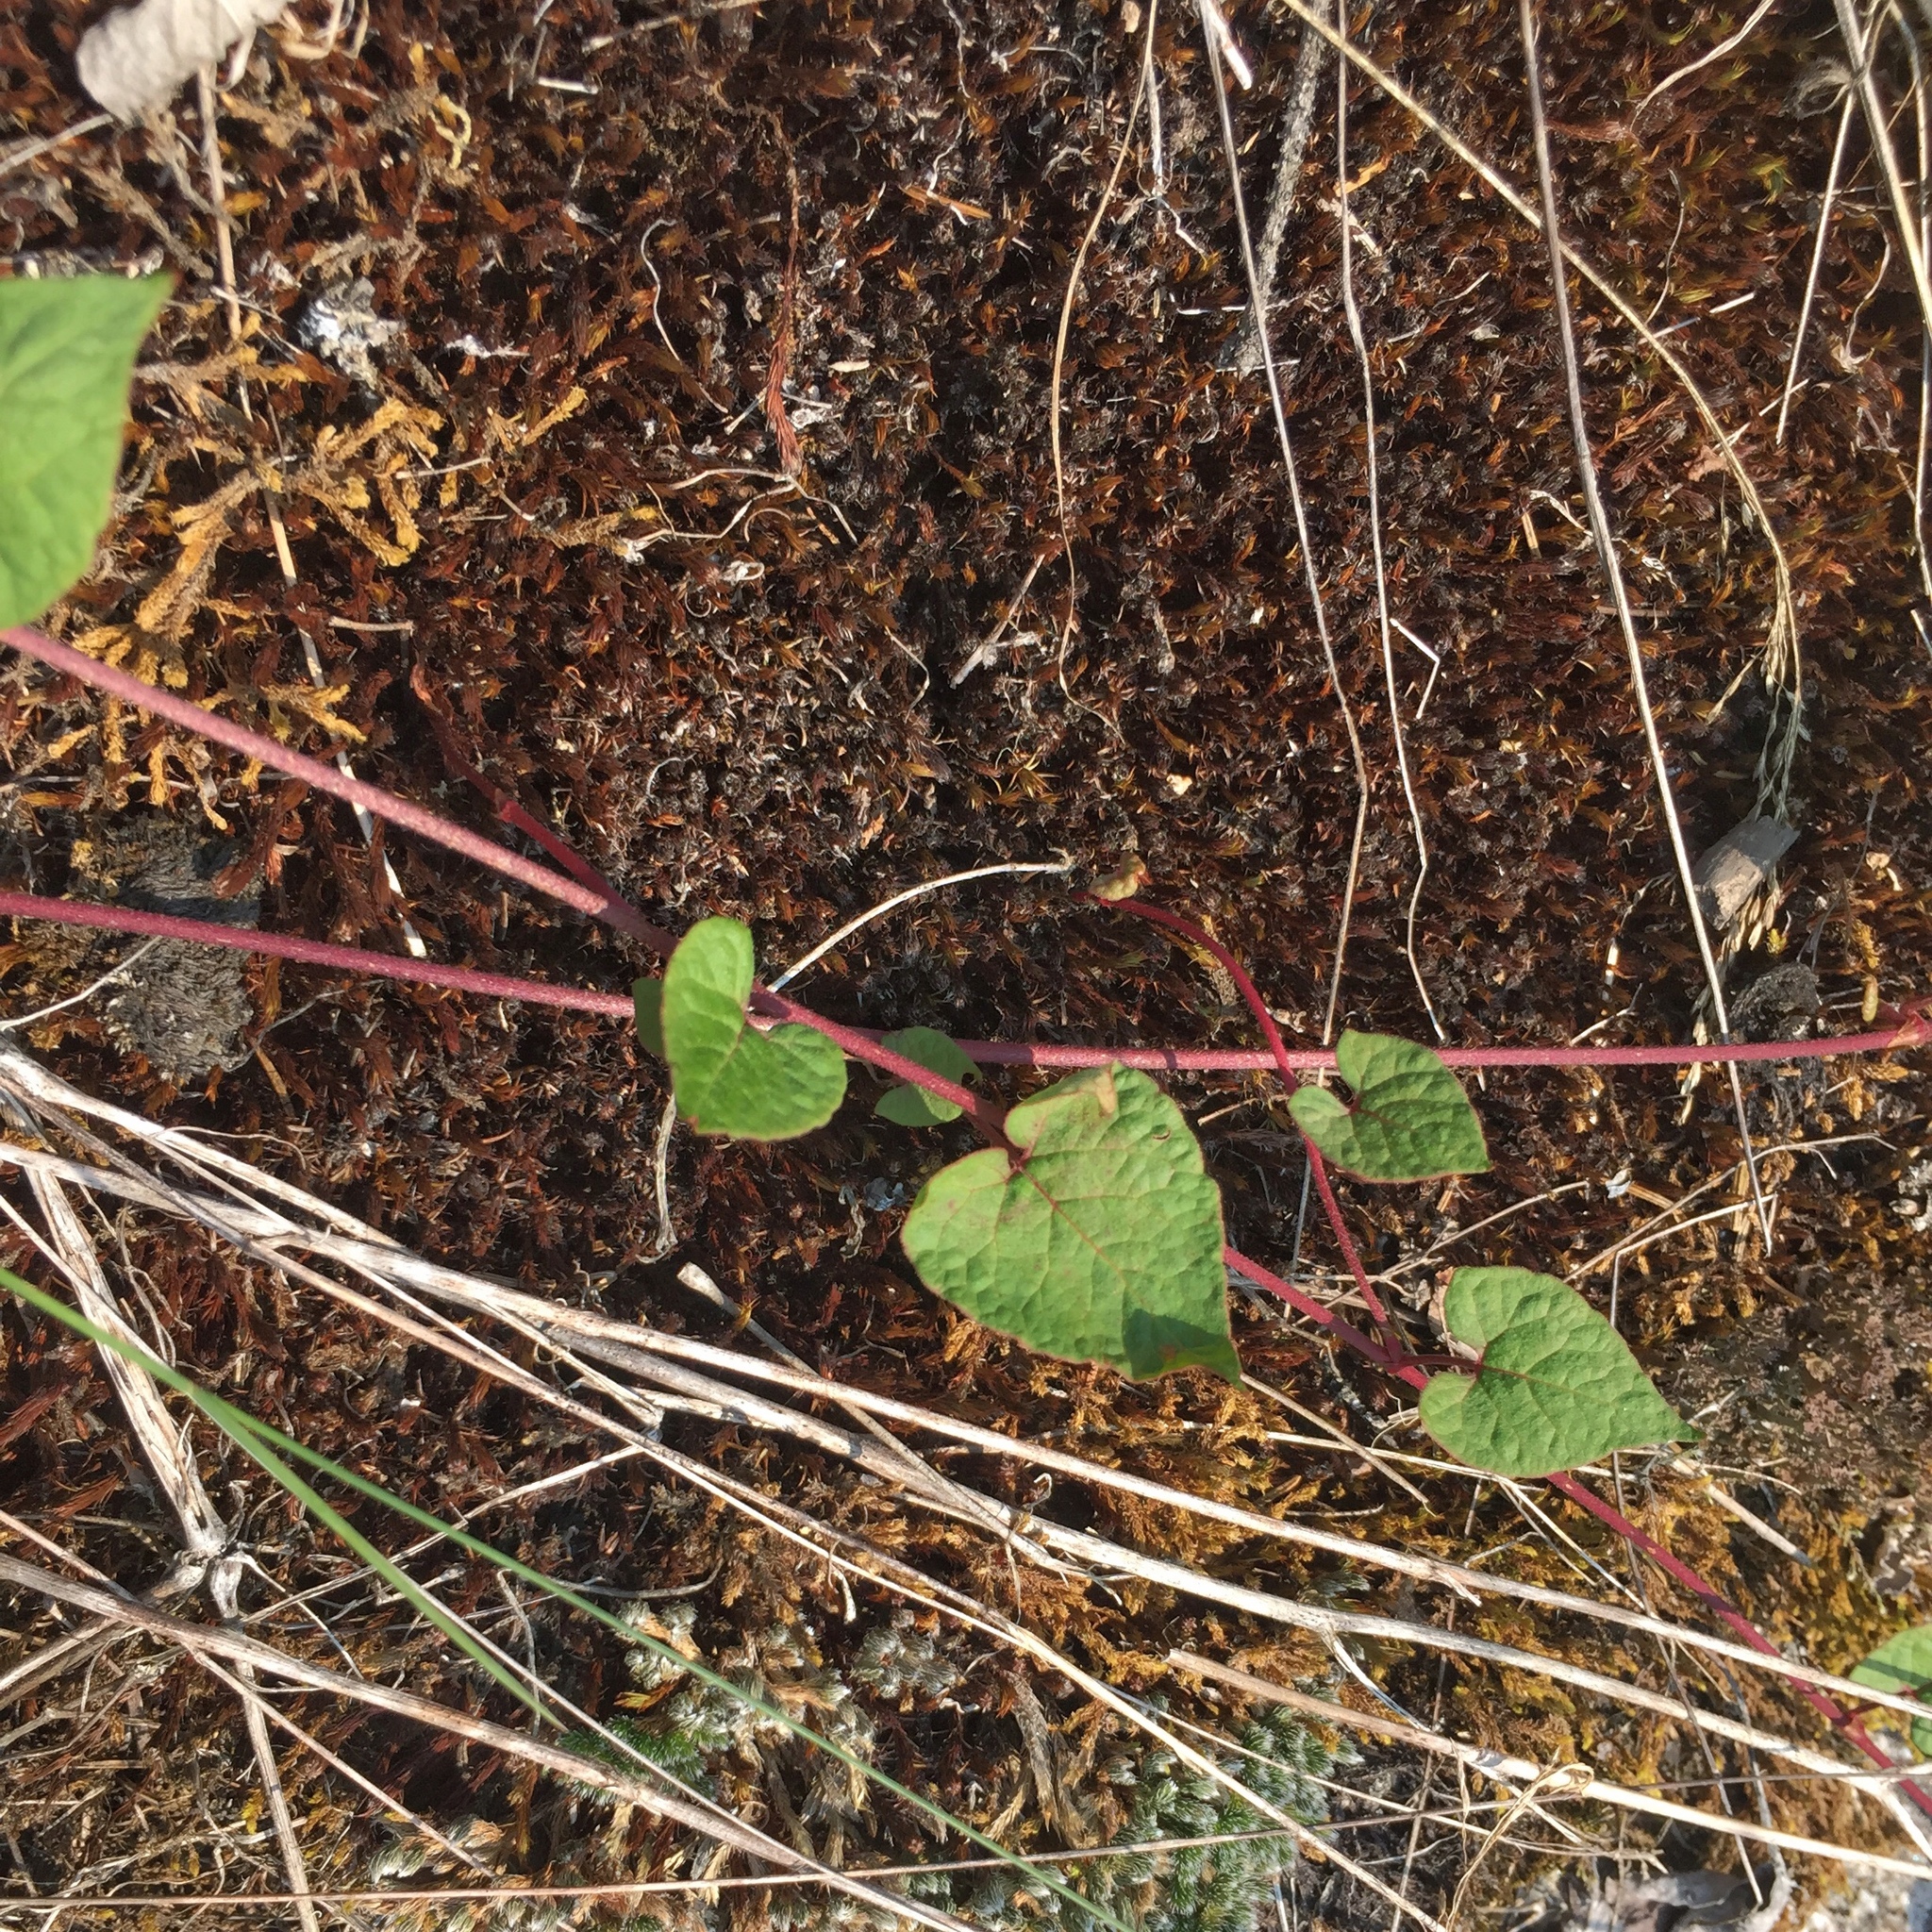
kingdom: Plantae
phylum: Tracheophyta
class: Magnoliopsida
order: Caryophyllales
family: Polygonaceae
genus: Parogonum
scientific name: Parogonum ciliinode
